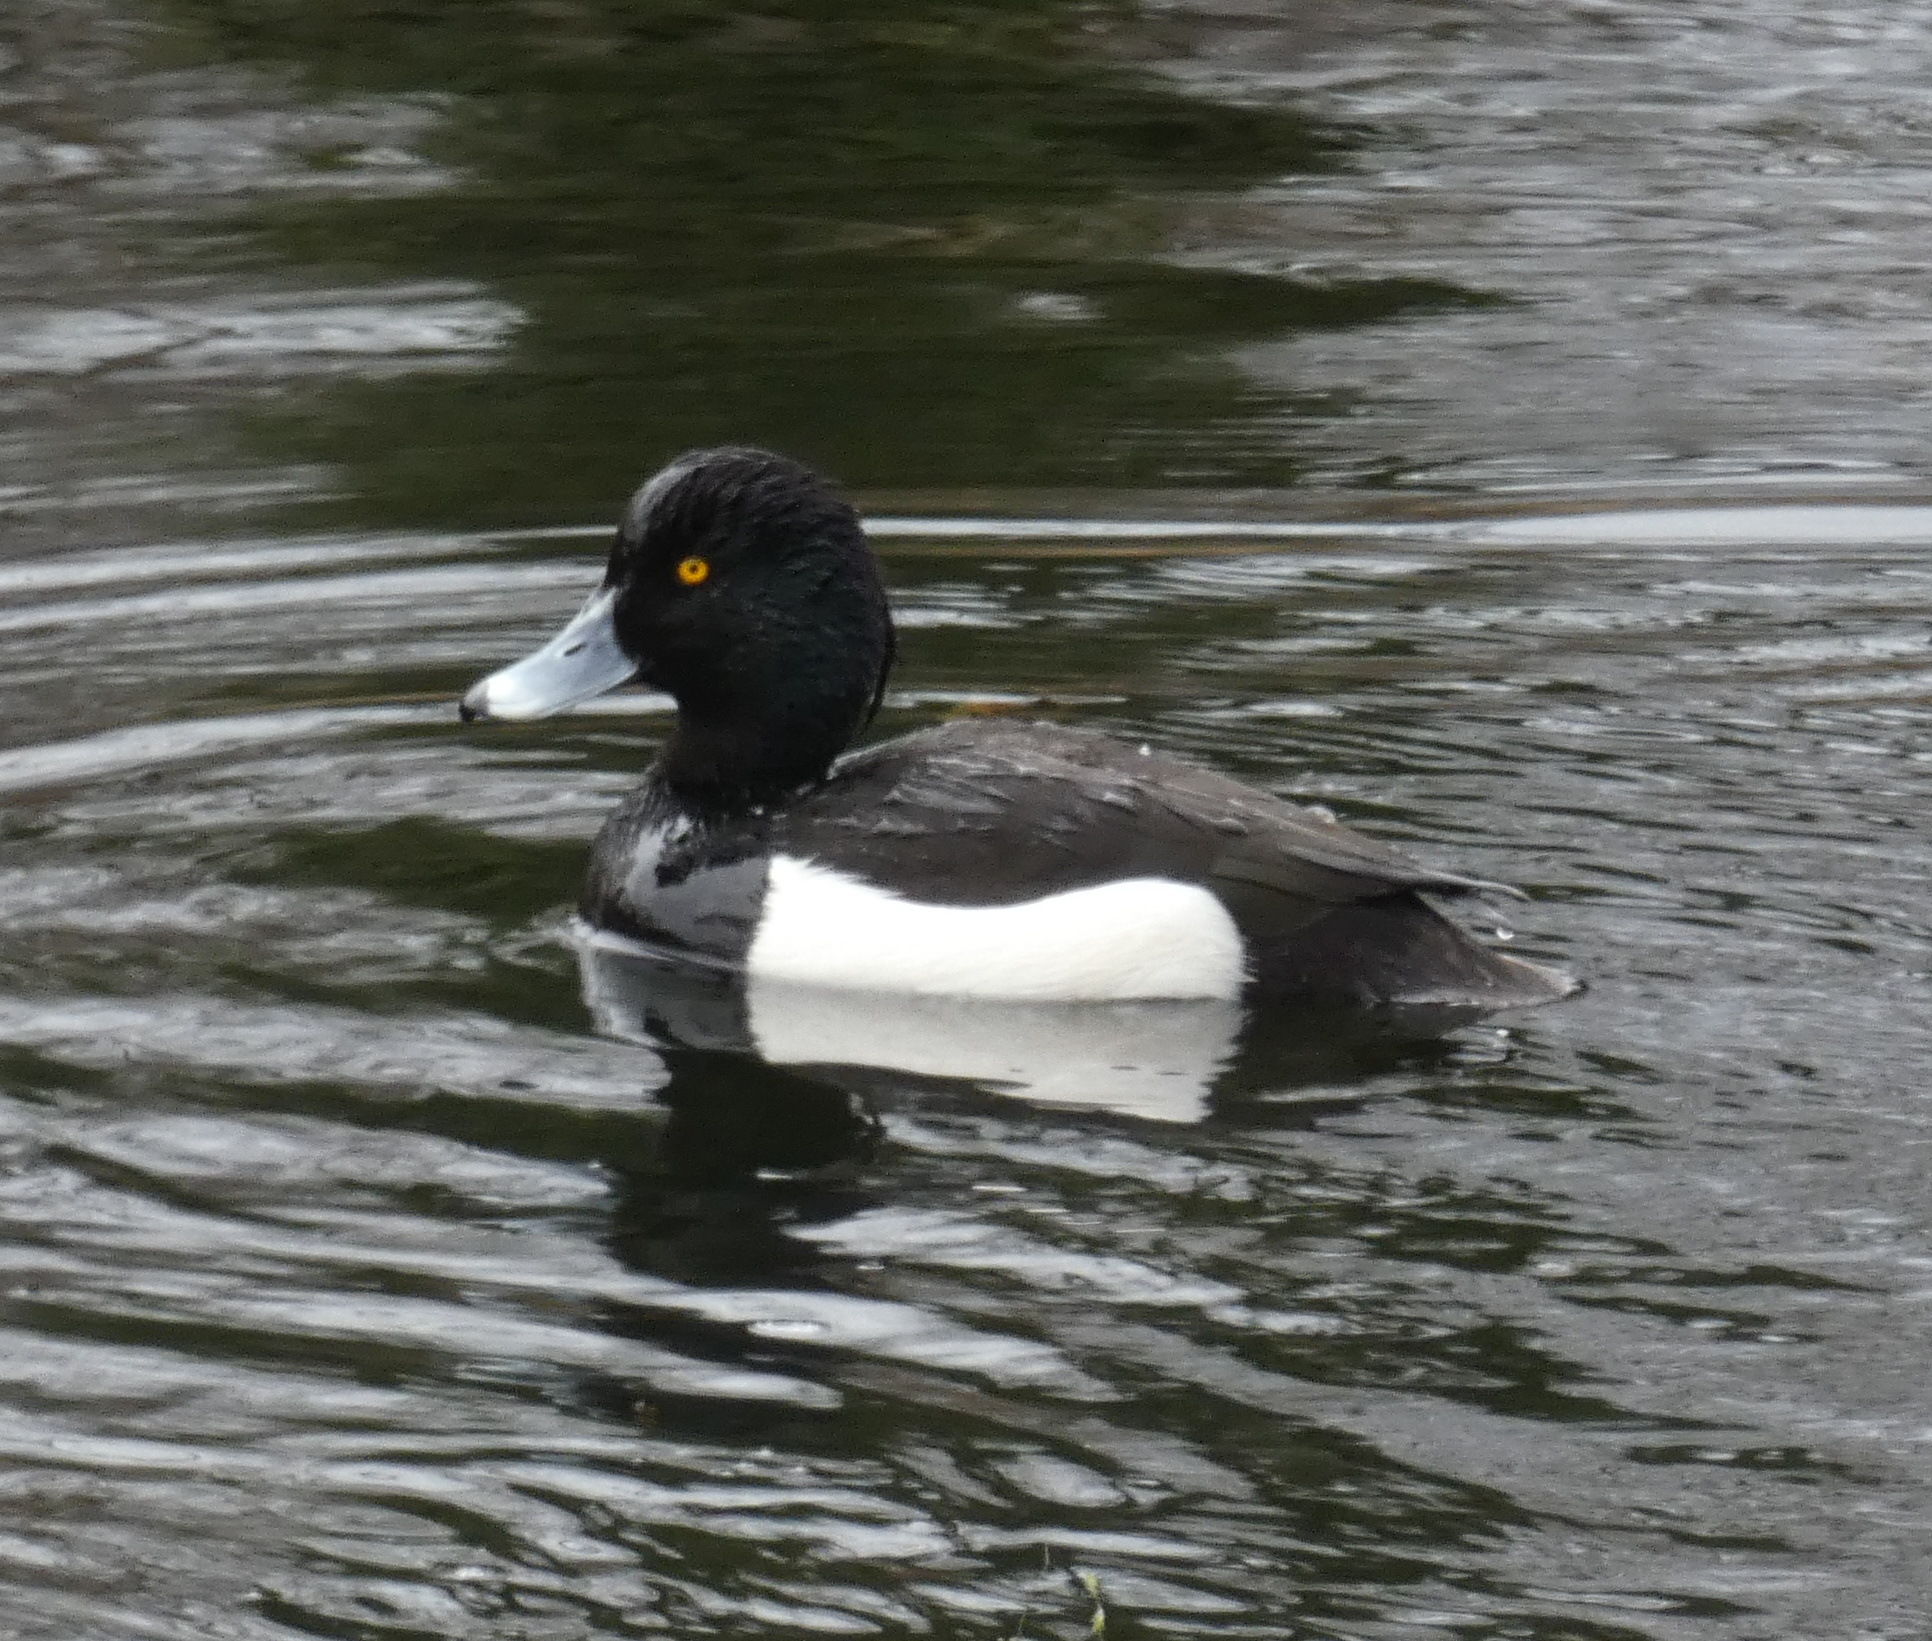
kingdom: Animalia
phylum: Chordata
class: Aves
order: Anseriformes
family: Anatidae
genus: Aythya
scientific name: Aythya fuligula
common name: Tufted duck
